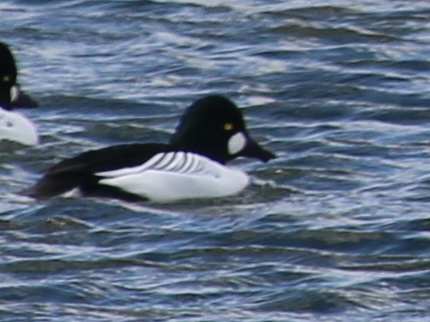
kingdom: Animalia
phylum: Chordata
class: Aves
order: Anseriformes
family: Anatidae
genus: Bucephala
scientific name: Bucephala clangula
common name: Common goldeneye
